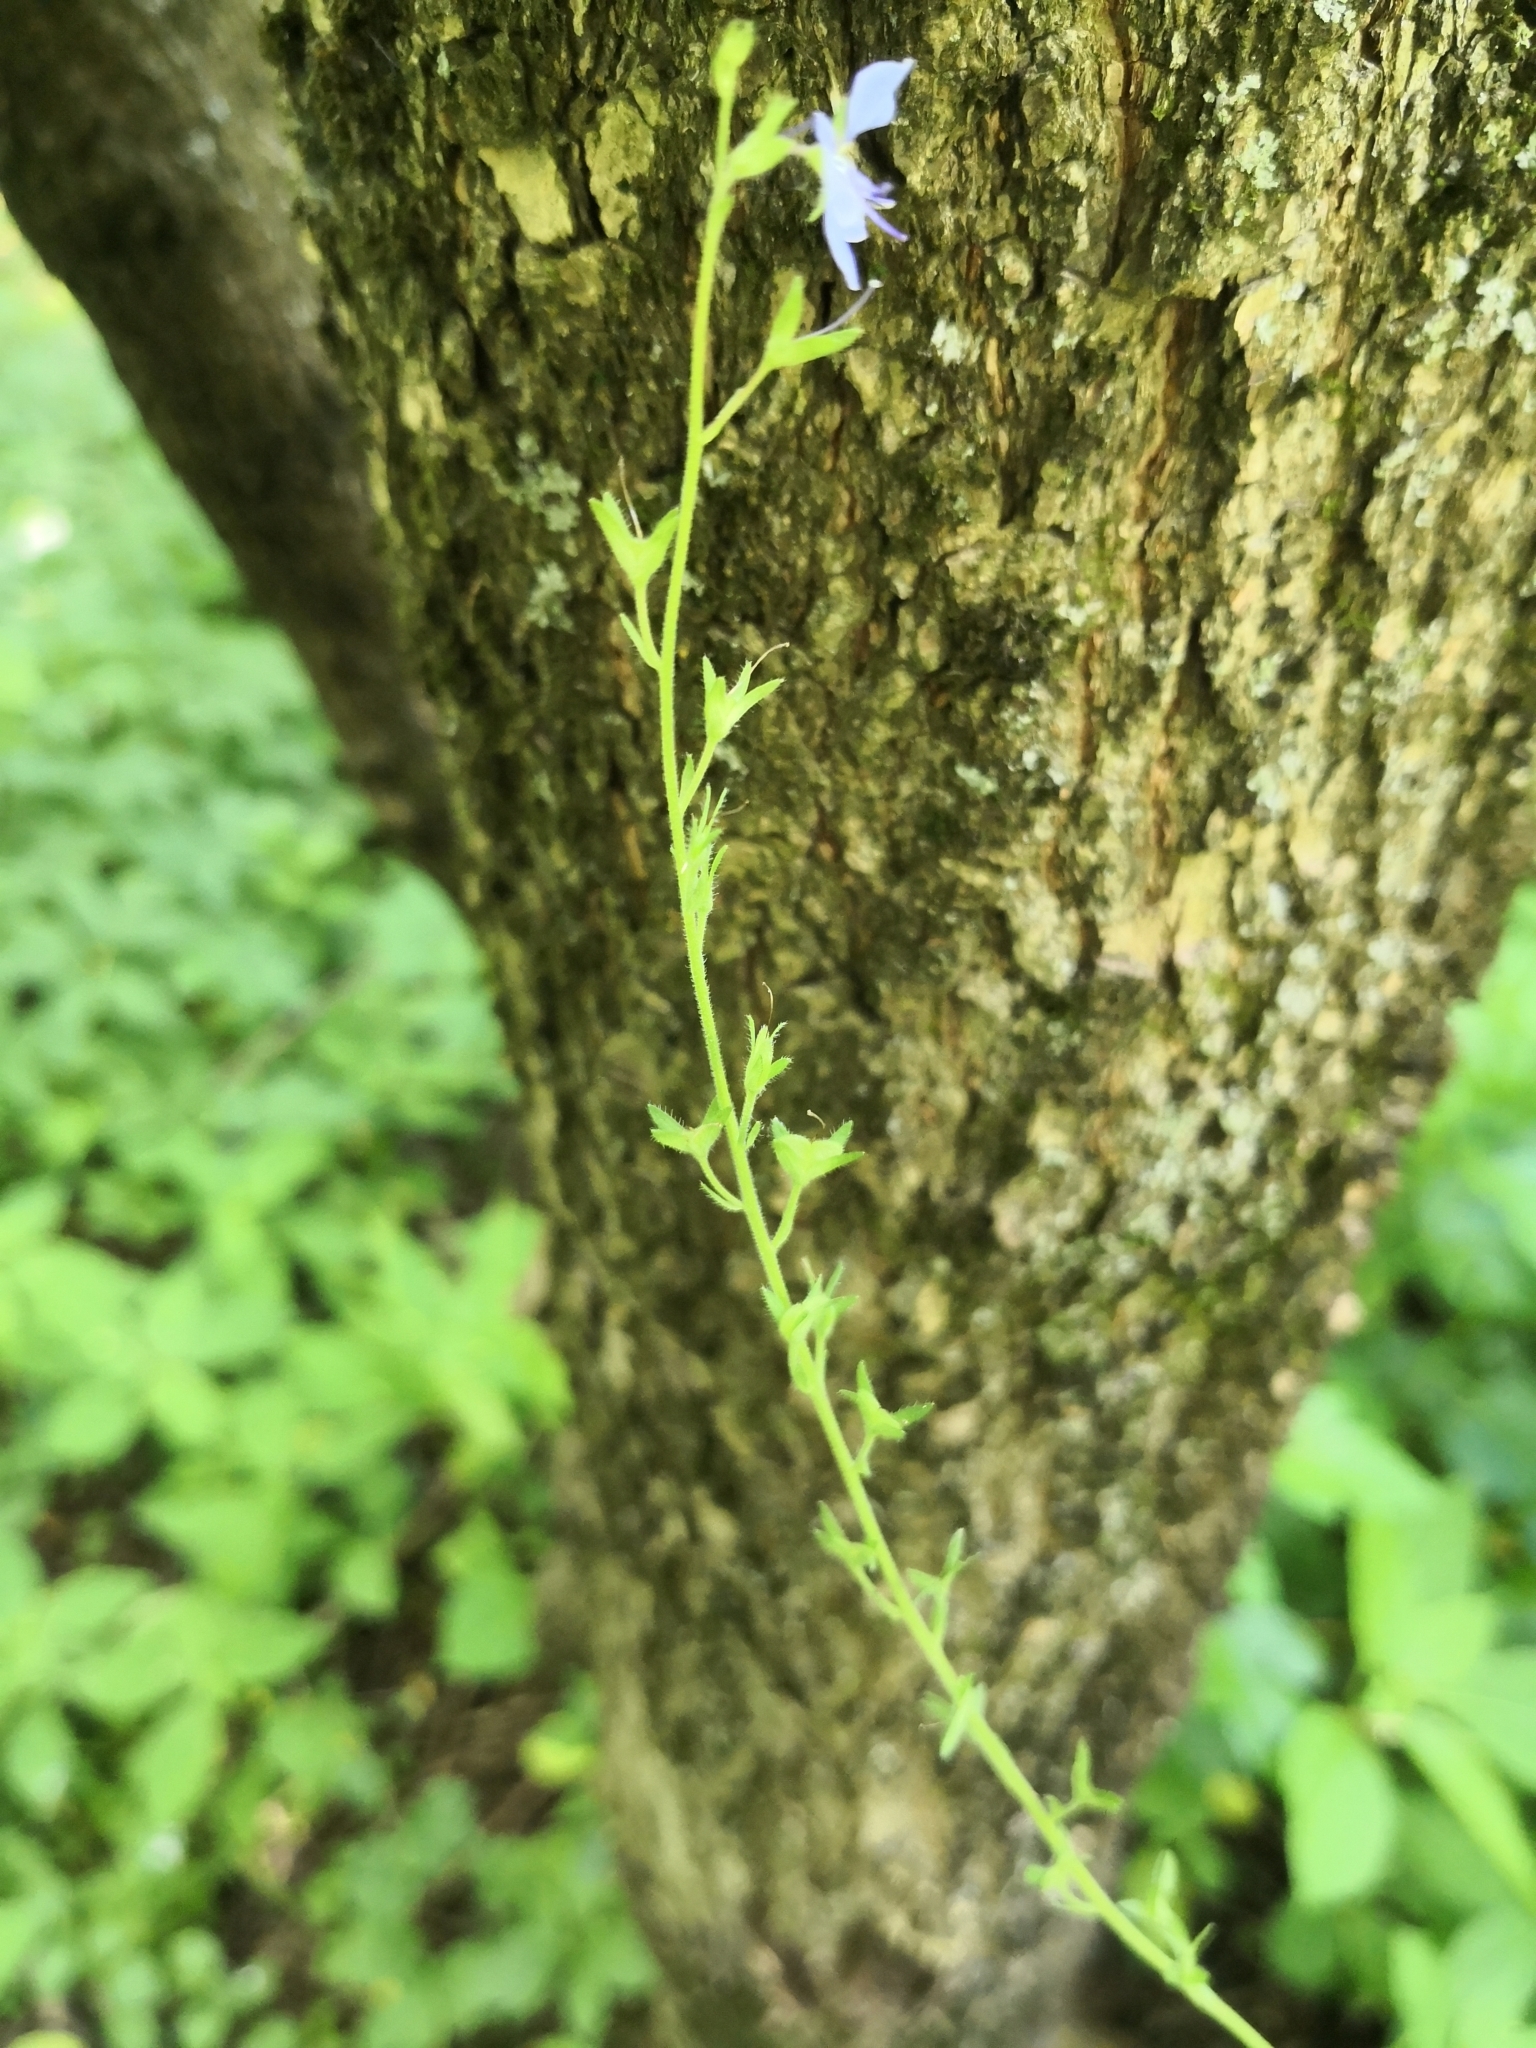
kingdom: Plantae
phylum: Tracheophyta
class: Magnoliopsida
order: Lamiales
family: Plantaginaceae
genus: Veronica
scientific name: Veronica chamaedrys
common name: Germander speedwell
